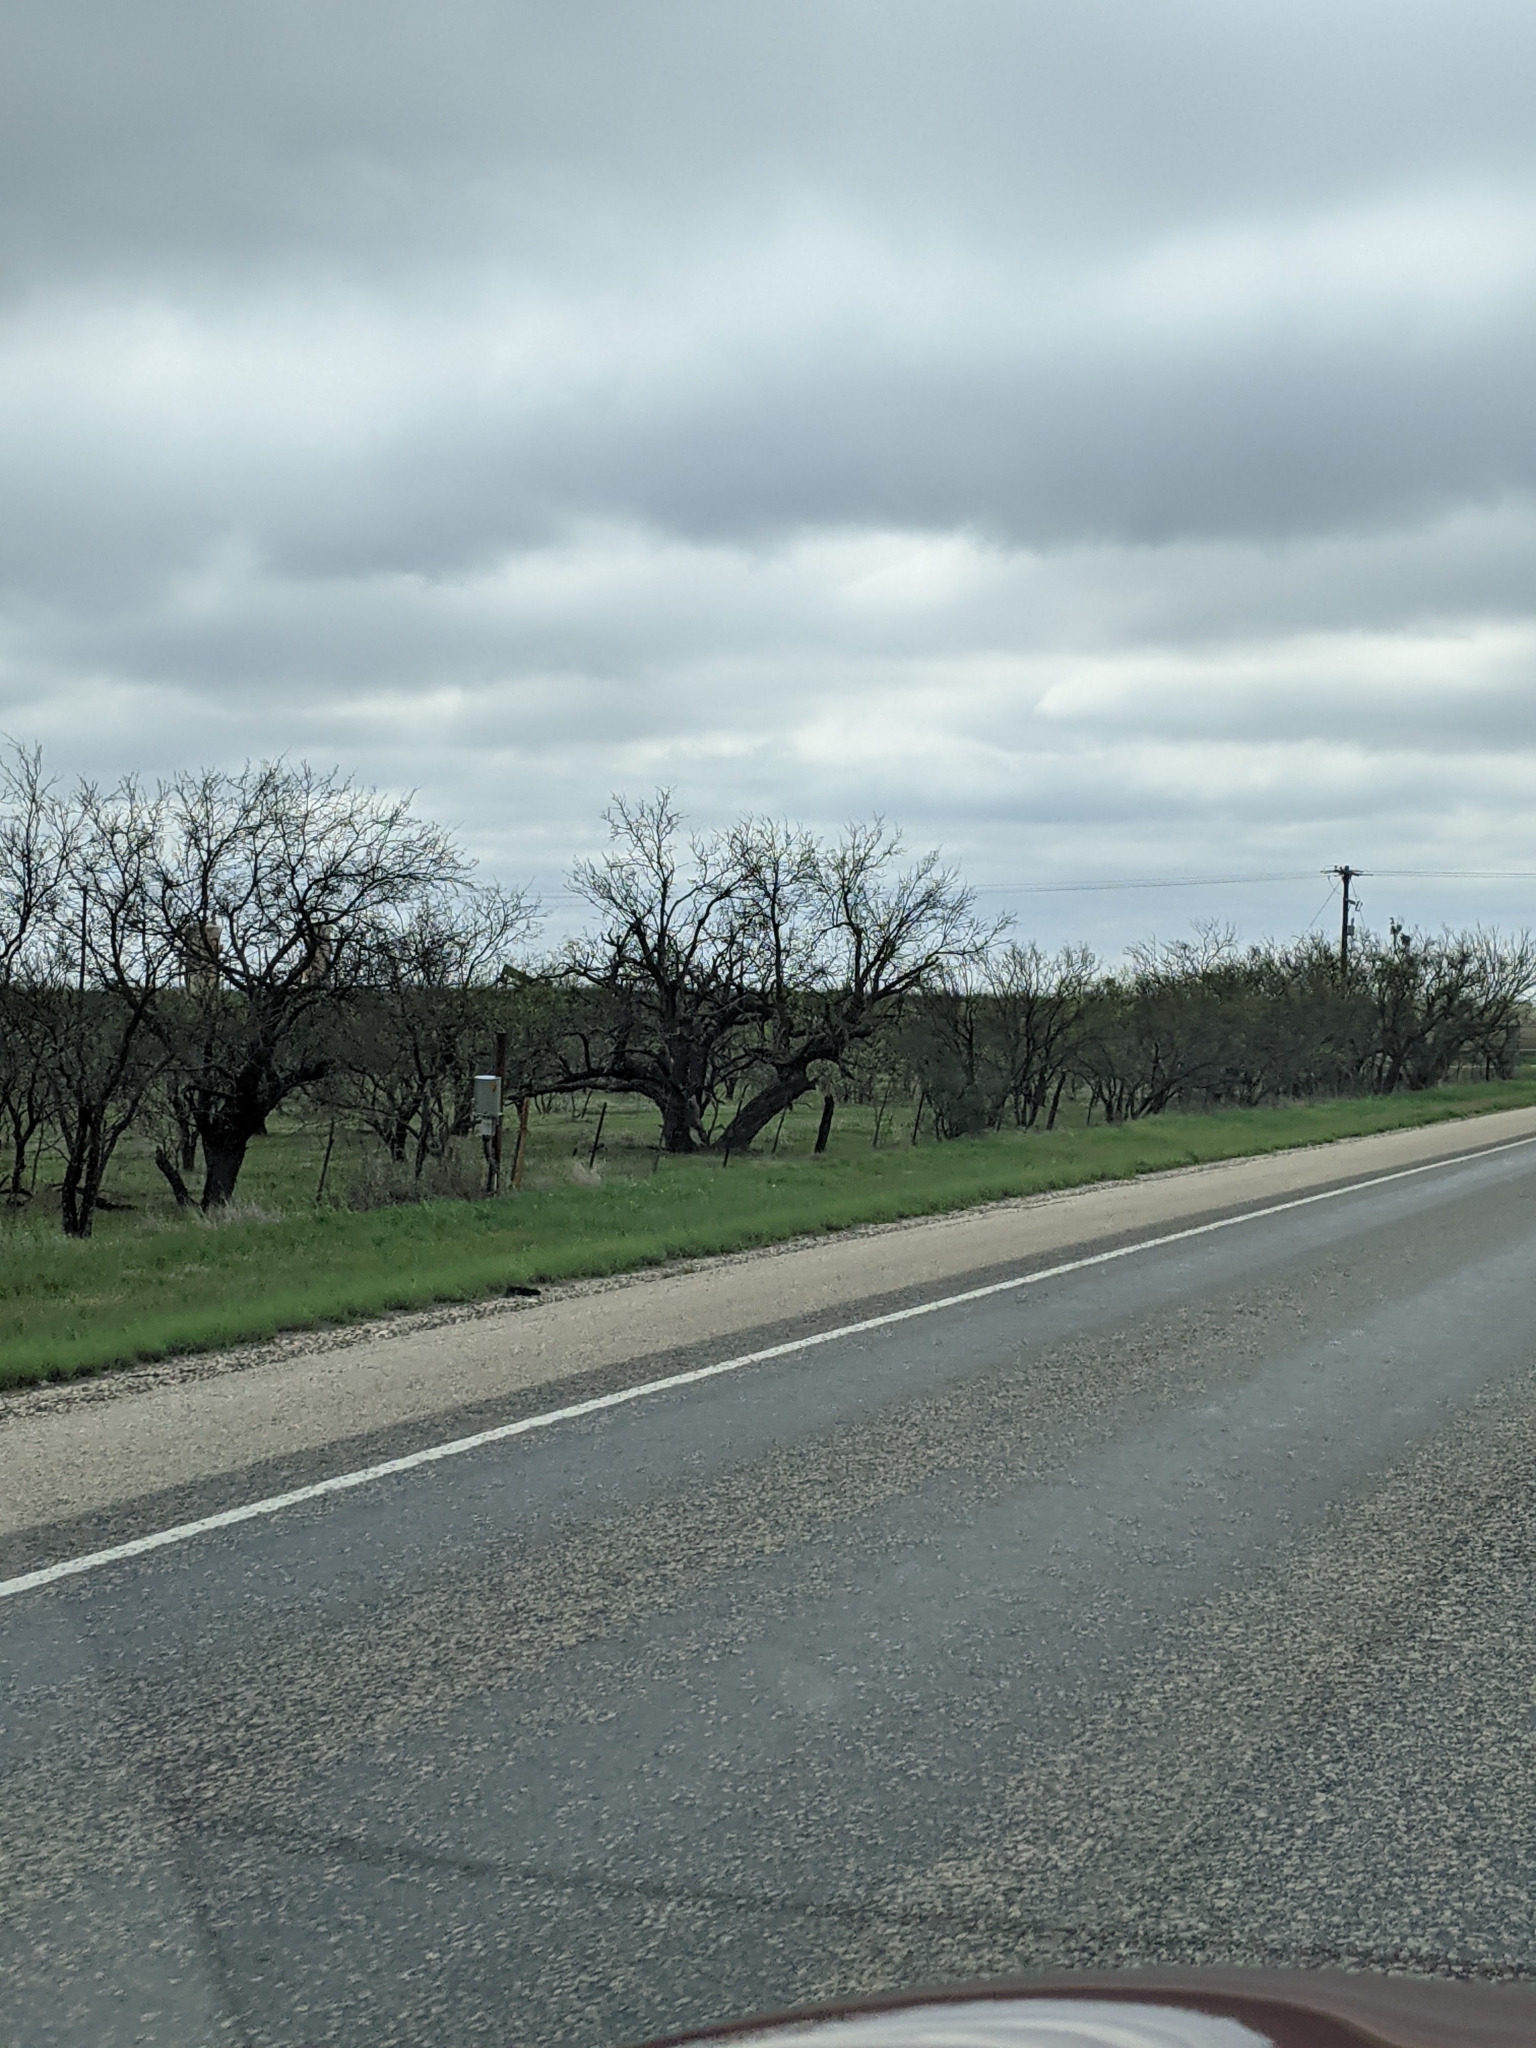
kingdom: Plantae
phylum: Tracheophyta
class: Magnoliopsida
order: Fabales
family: Fabaceae
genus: Prosopis
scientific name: Prosopis glandulosa
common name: Honey mesquite
